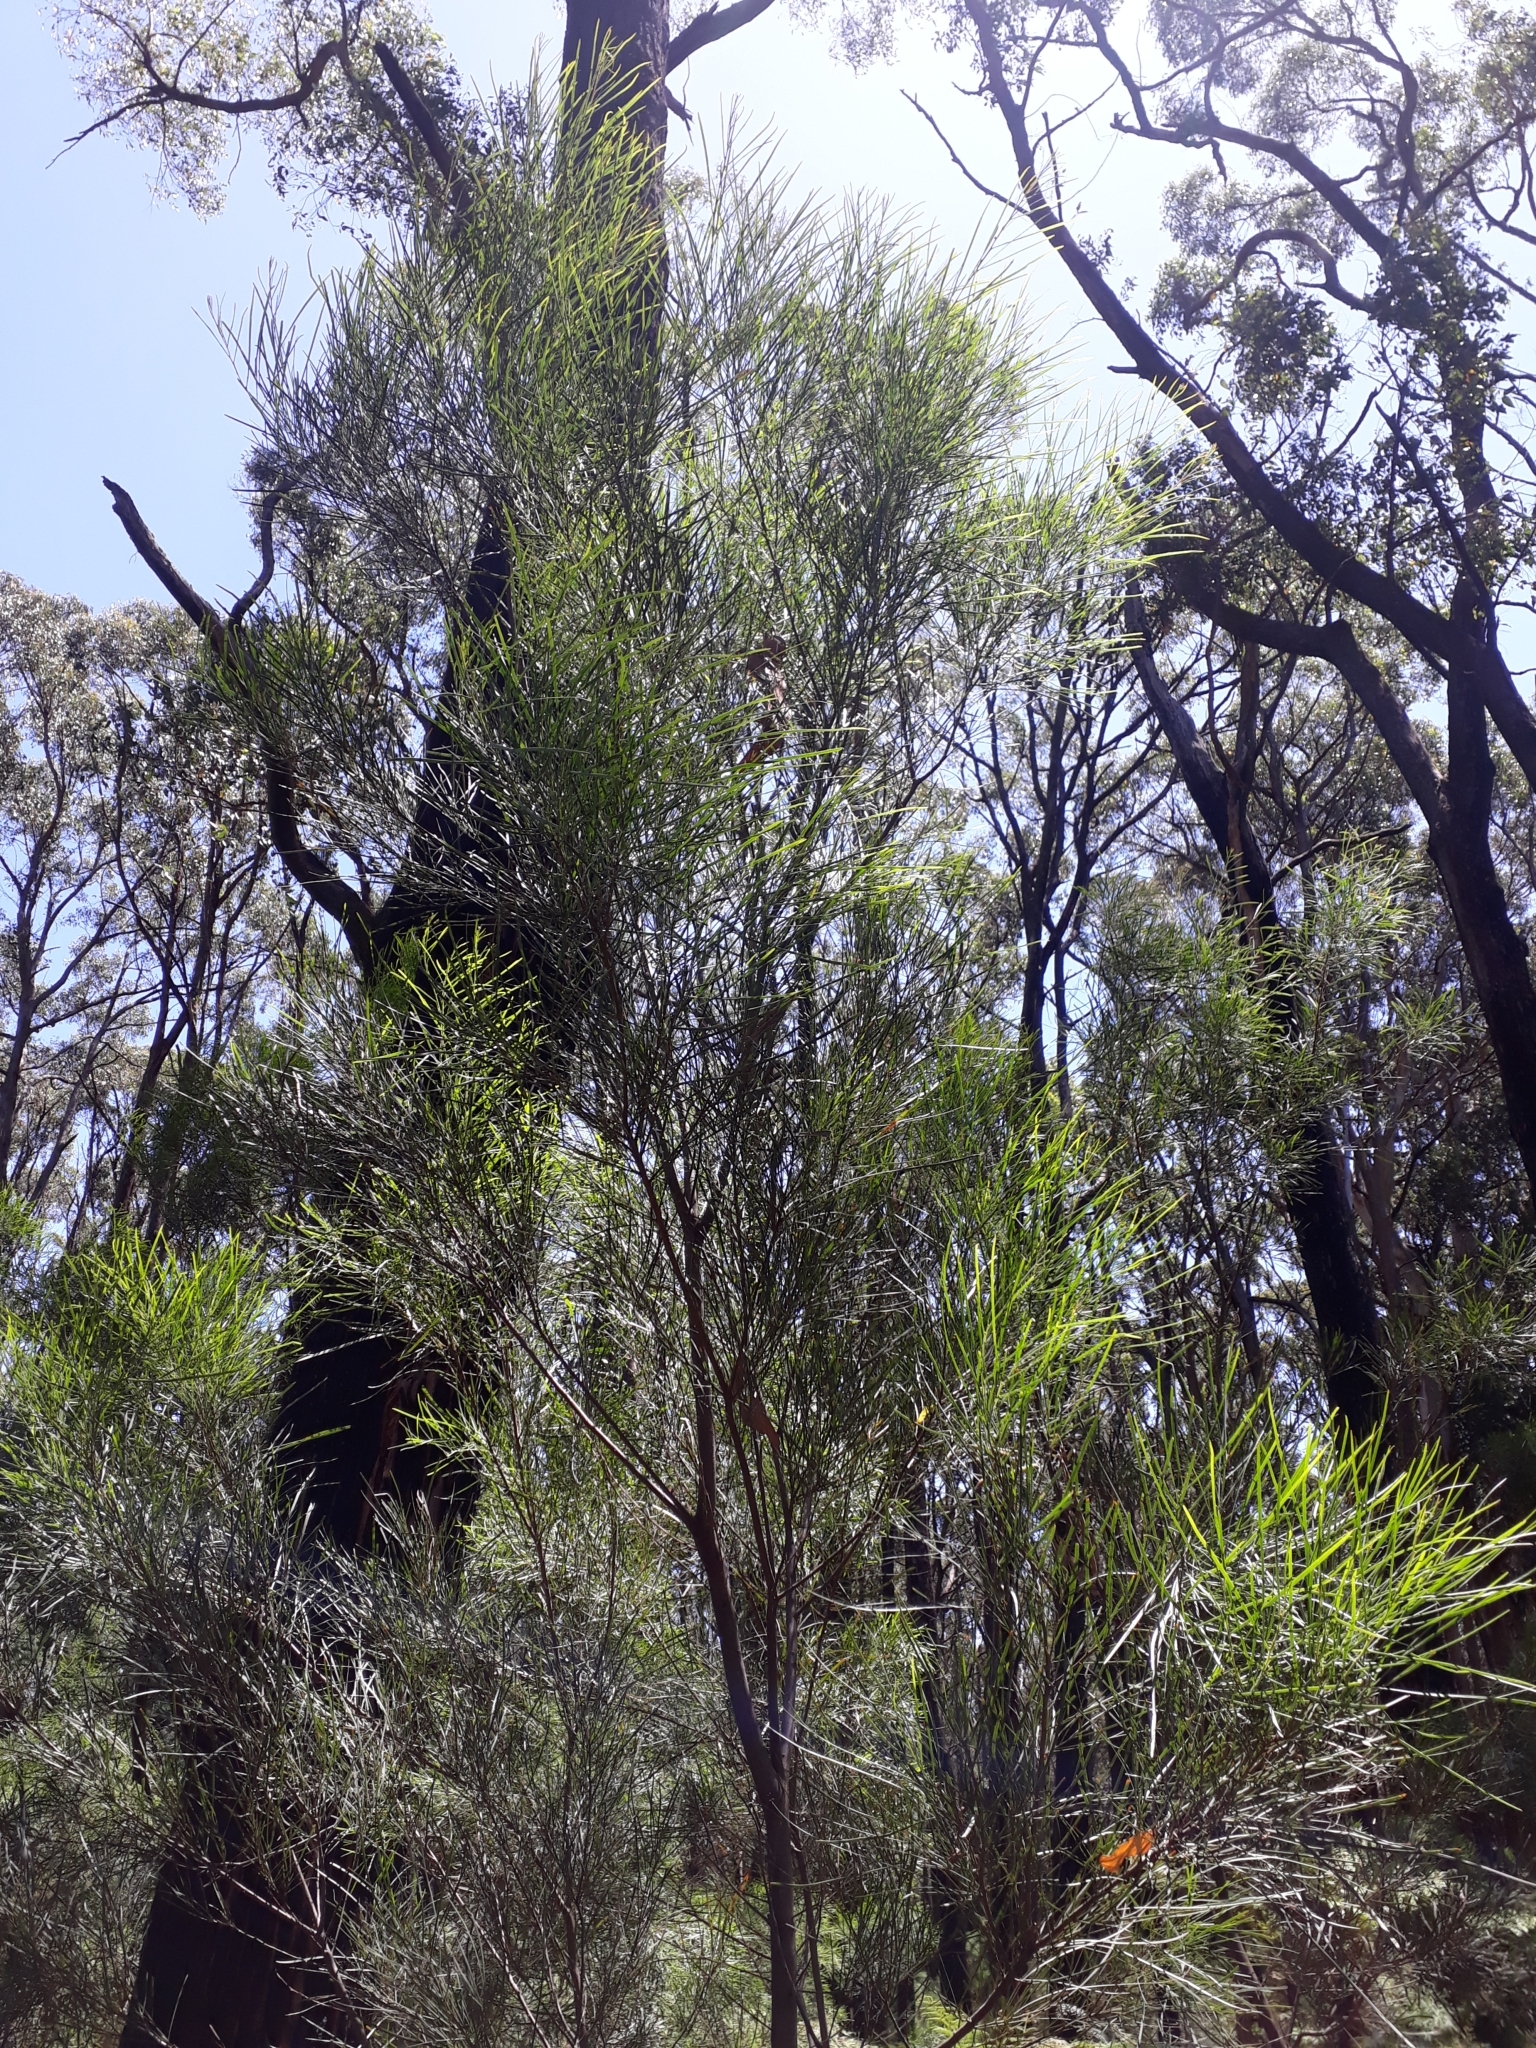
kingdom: Plantae
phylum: Tracheophyta
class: Magnoliopsida
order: Fabales
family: Fabaceae
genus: Acacia
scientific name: Acacia mucronata
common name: Variable sallow wattle
